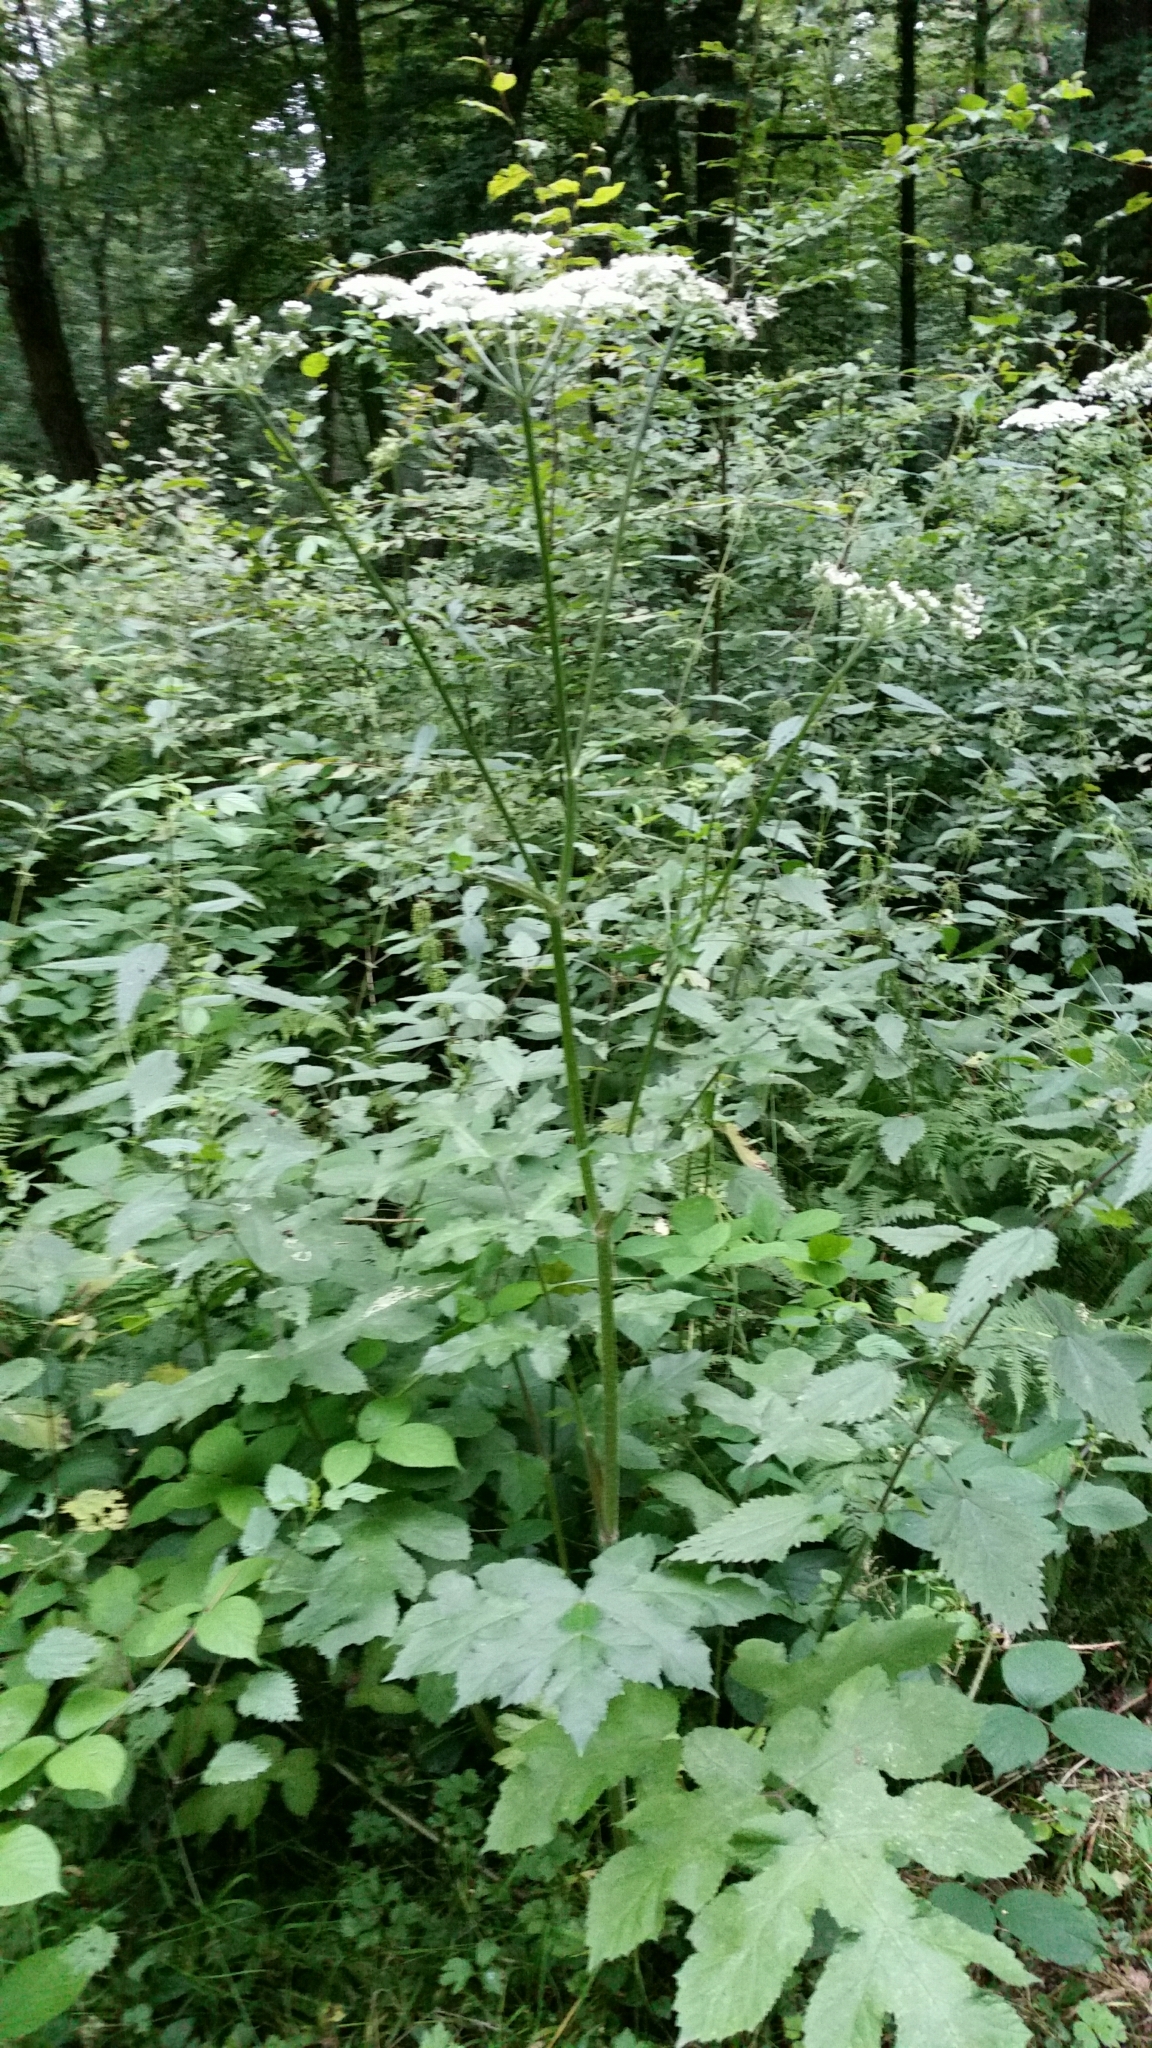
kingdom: Plantae
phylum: Tracheophyta
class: Magnoliopsida
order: Apiales
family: Apiaceae
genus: Heracleum
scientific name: Heracleum sphondylium
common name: Hogweed
